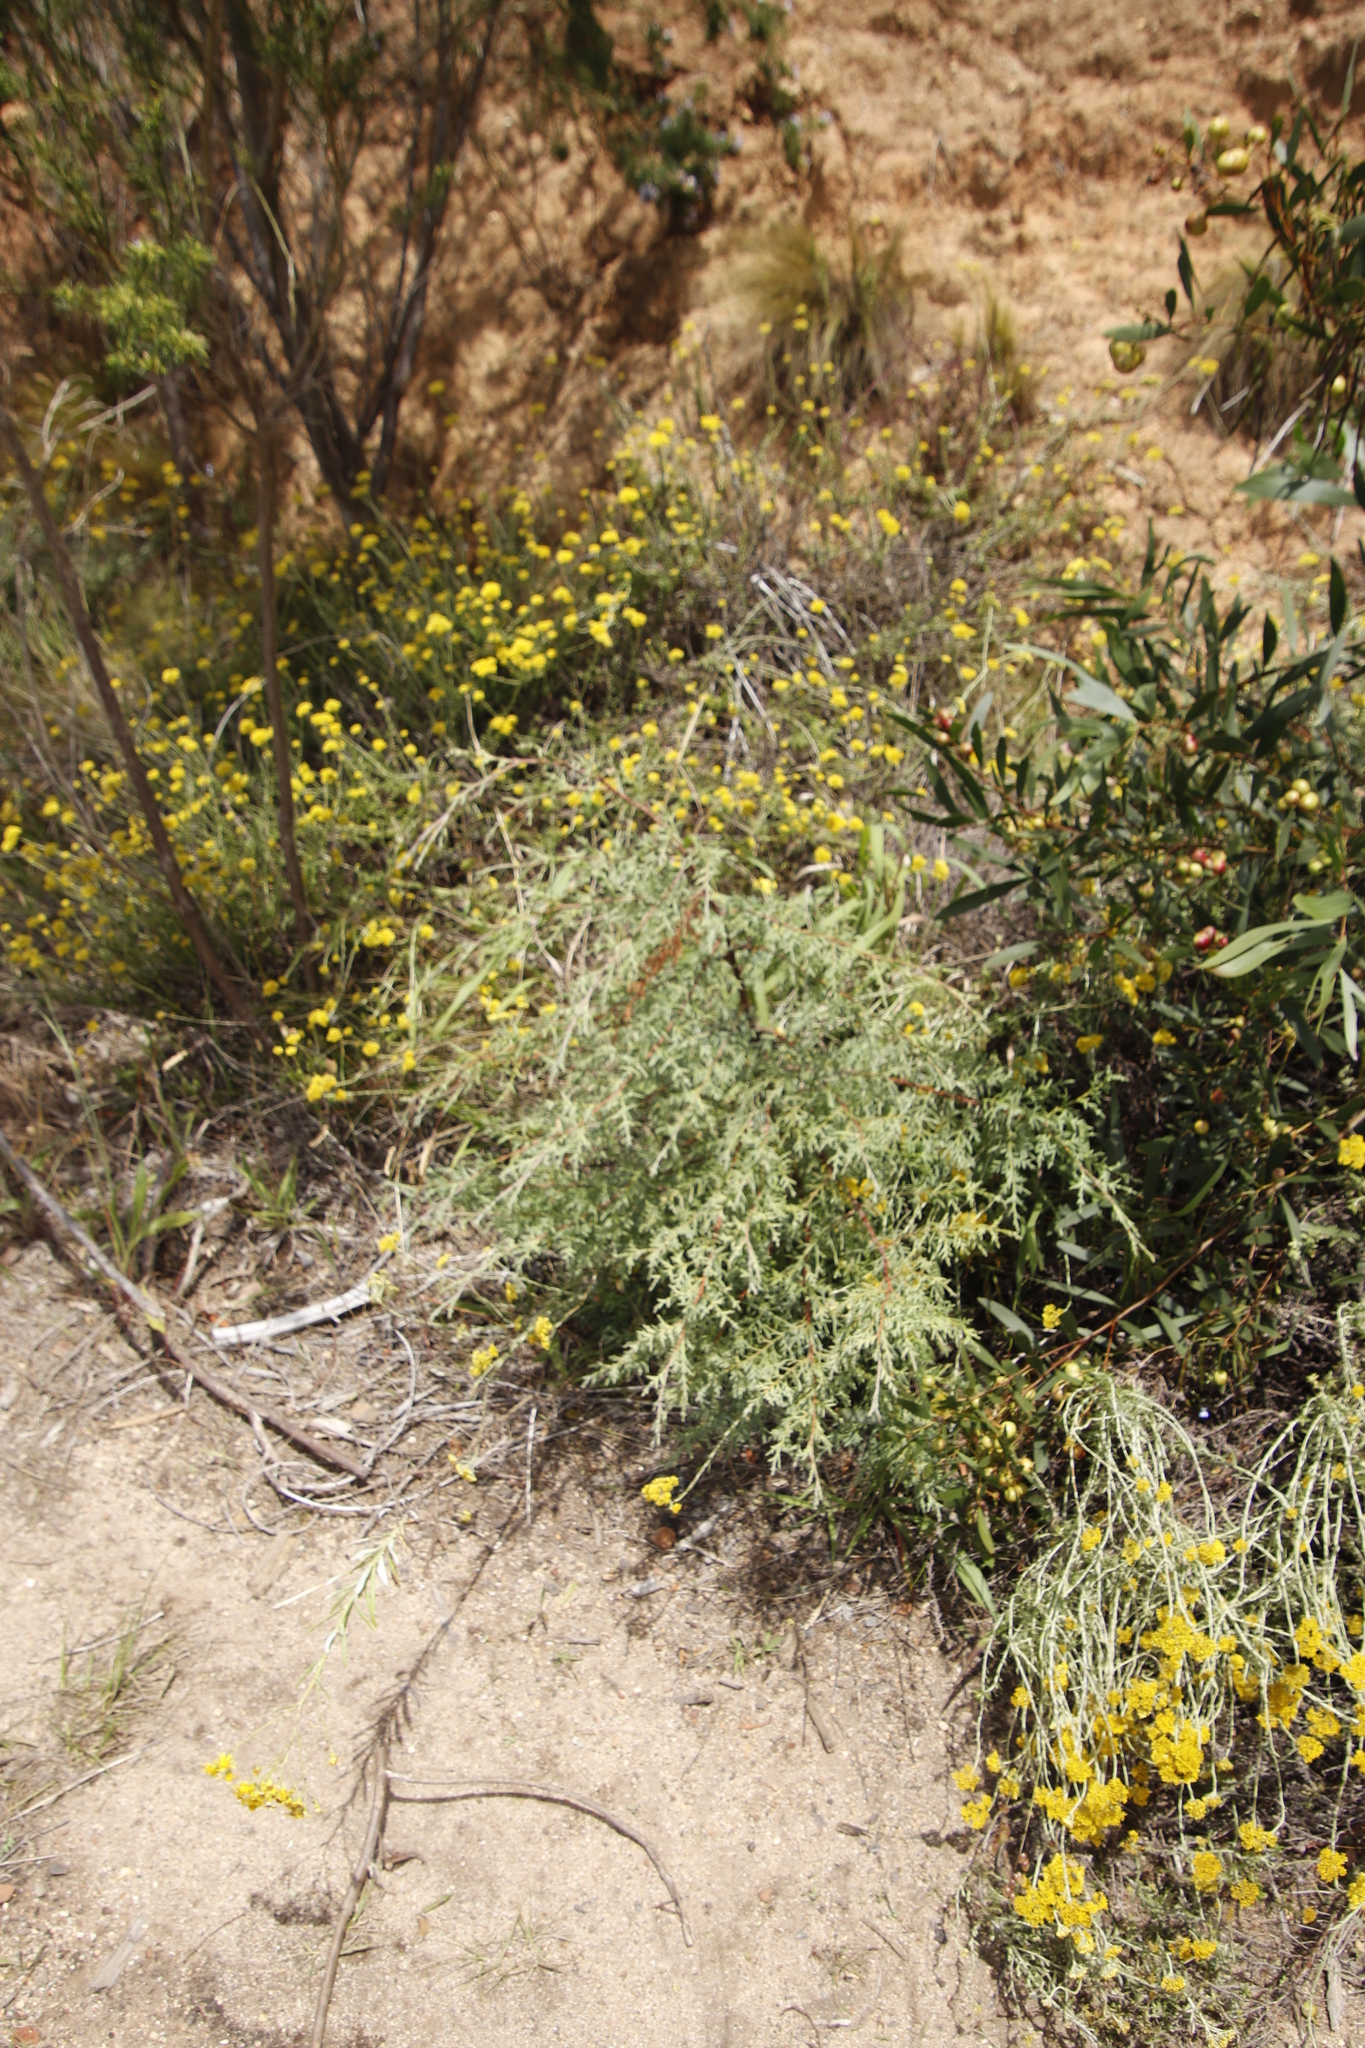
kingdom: Plantae
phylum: Tracheophyta
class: Pinopsida
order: Pinales
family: Cupressaceae
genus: Cupressus
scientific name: Cupressus lusitanica
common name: Mexican cypress
